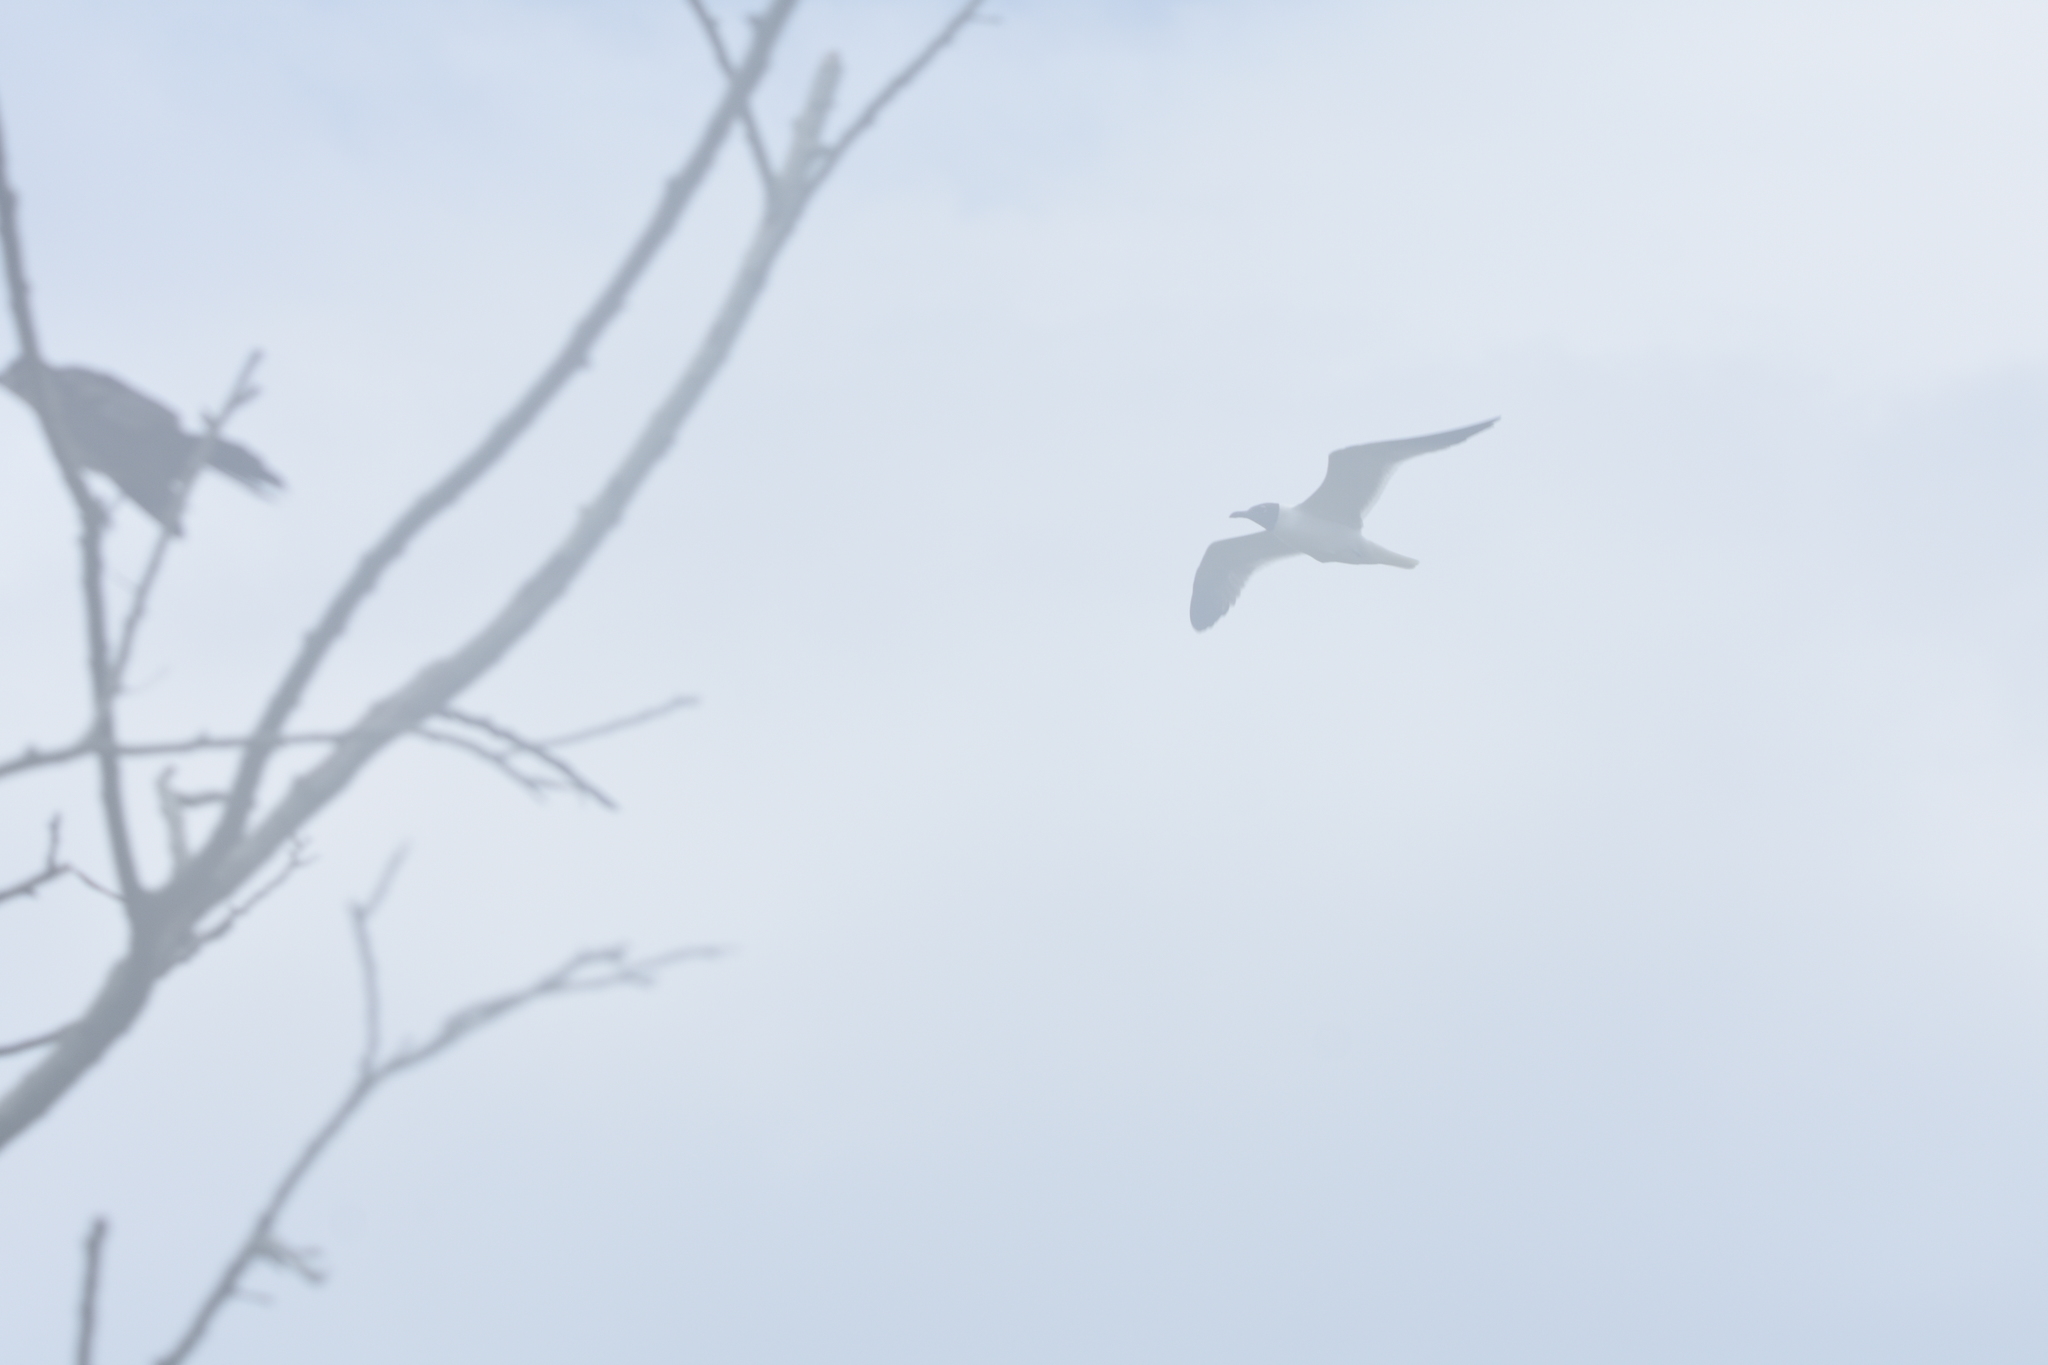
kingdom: Animalia
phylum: Chordata
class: Aves
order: Charadriiformes
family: Laridae
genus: Leucophaeus
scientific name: Leucophaeus atricilla
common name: Laughing gull
